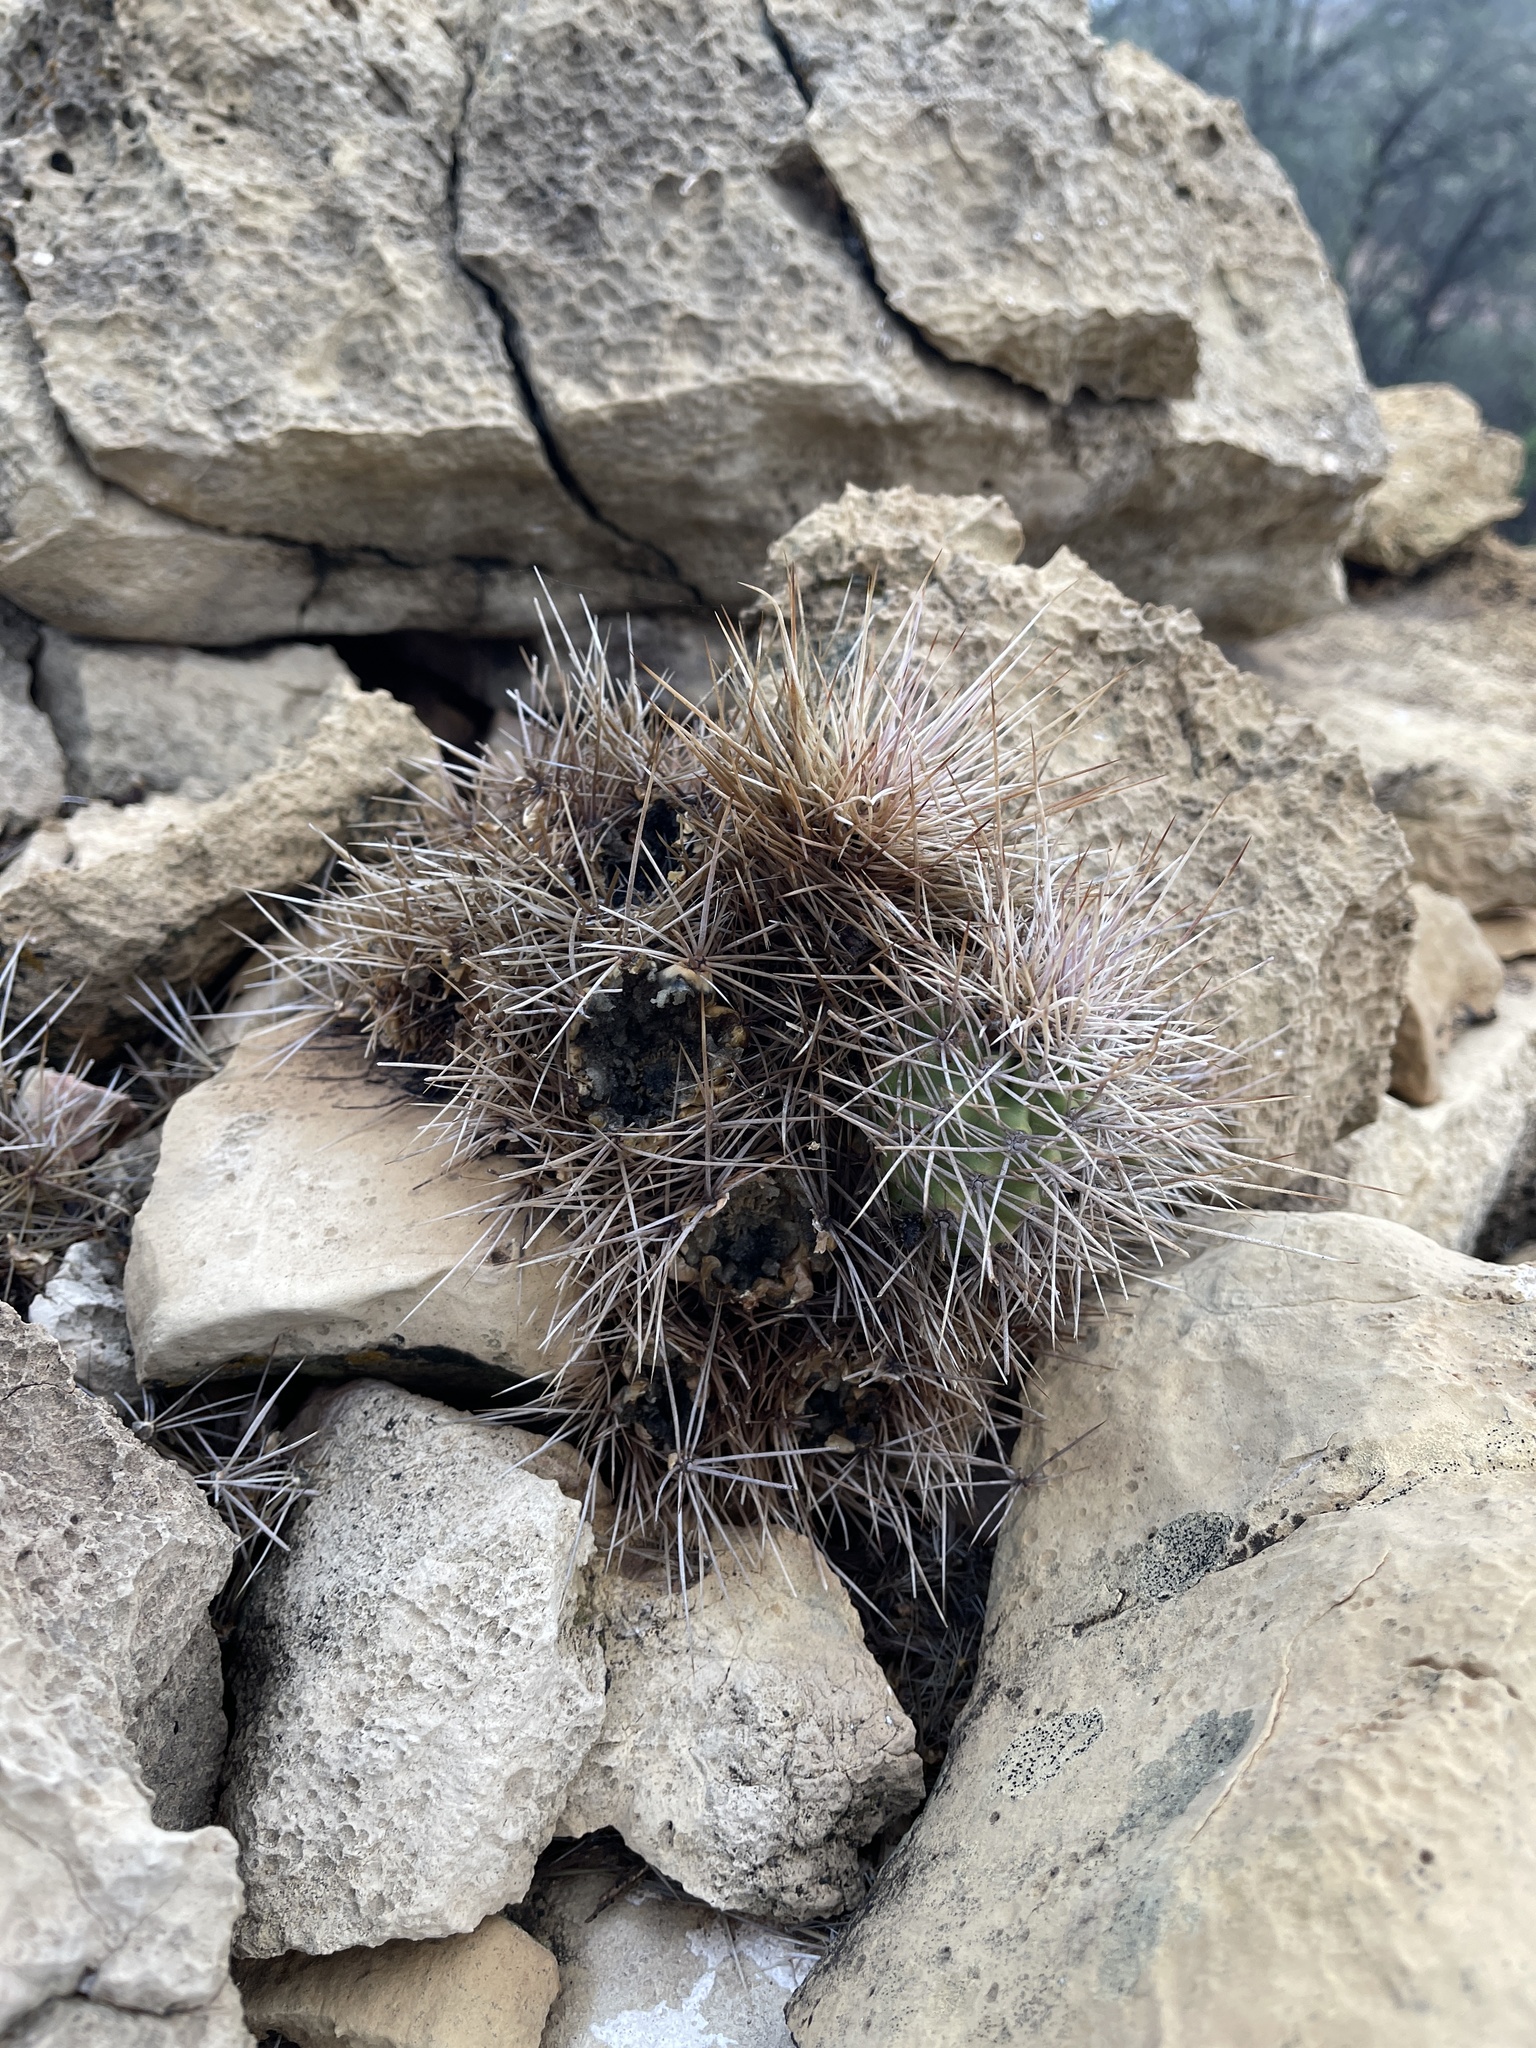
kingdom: Plantae
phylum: Tracheophyta
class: Magnoliopsida
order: Caryophyllales
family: Cactaceae
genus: Echinocereus
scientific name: Echinocereus triglochidiatus
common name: Claretcup hedgehog
